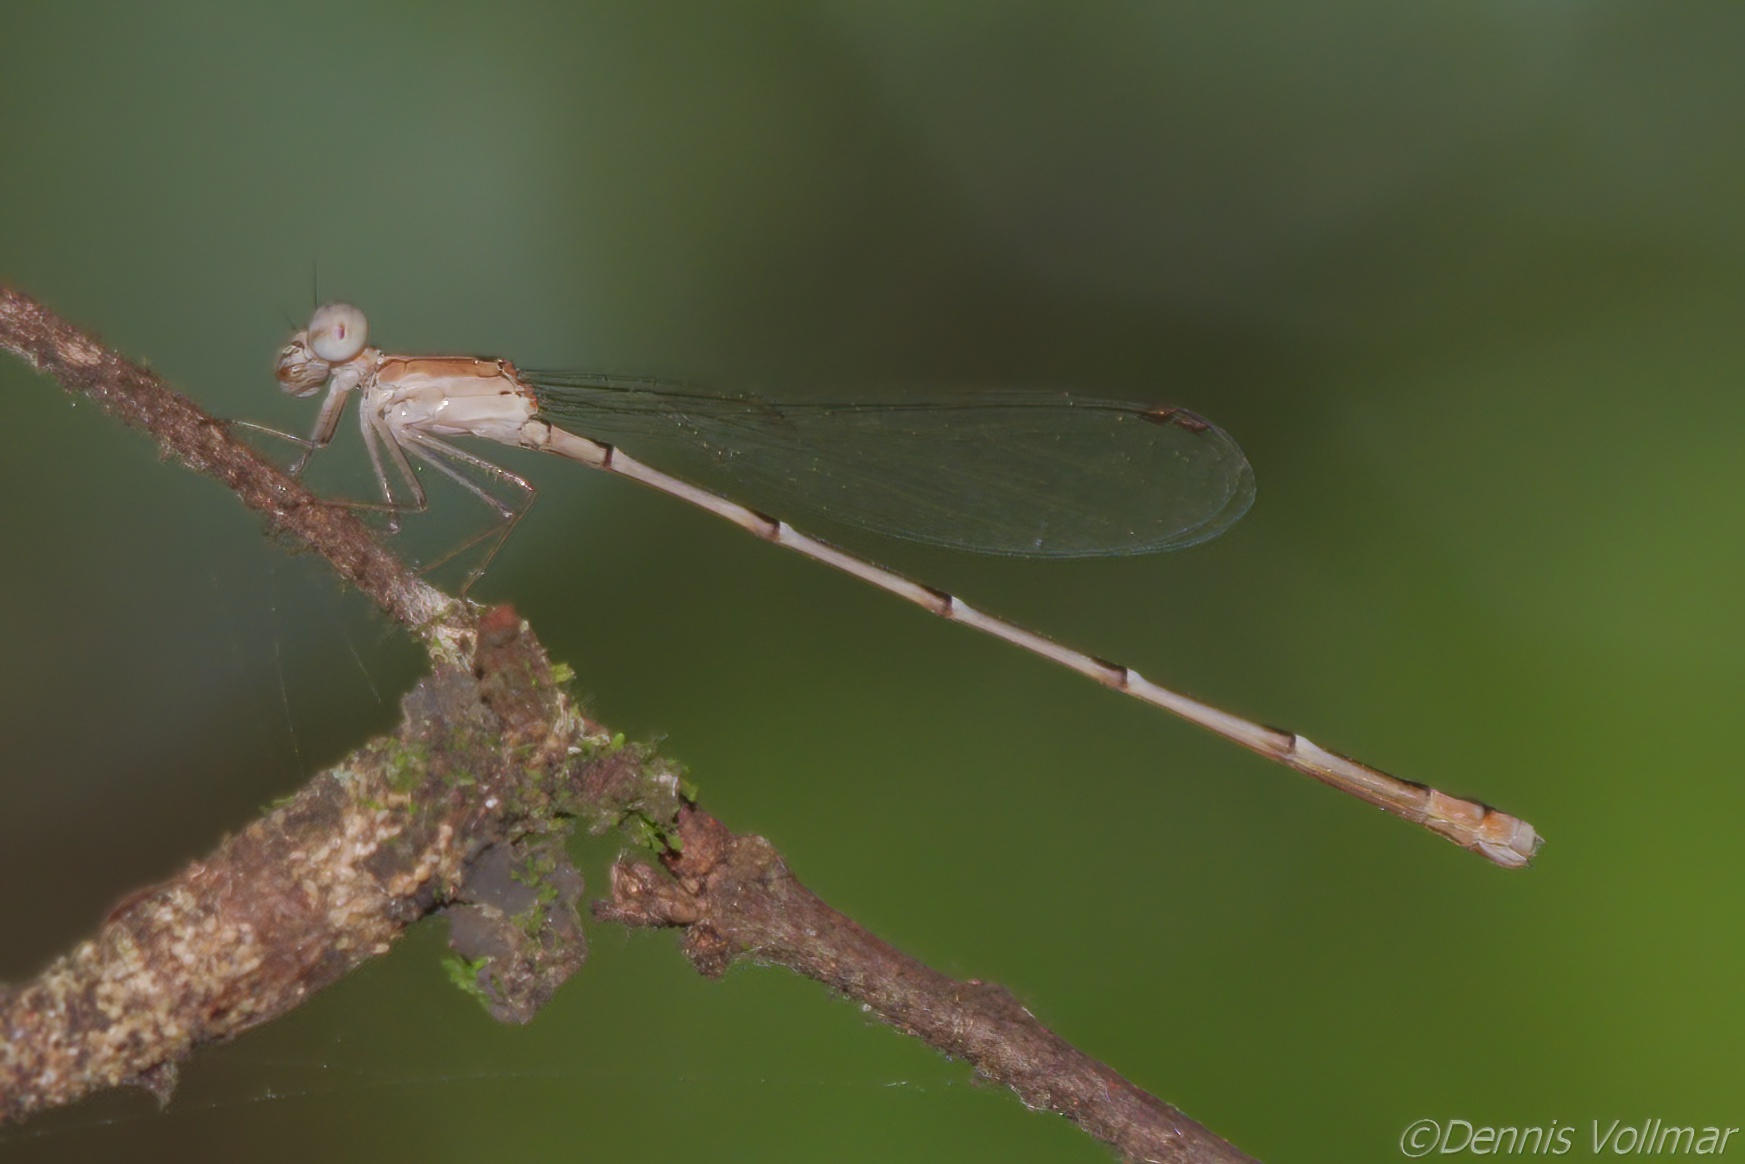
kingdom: Animalia
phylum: Arthropoda
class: Insecta
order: Odonata
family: Coenagrionidae
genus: Nehalennia
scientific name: Nehalennia pallidula
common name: Everglades sprite
